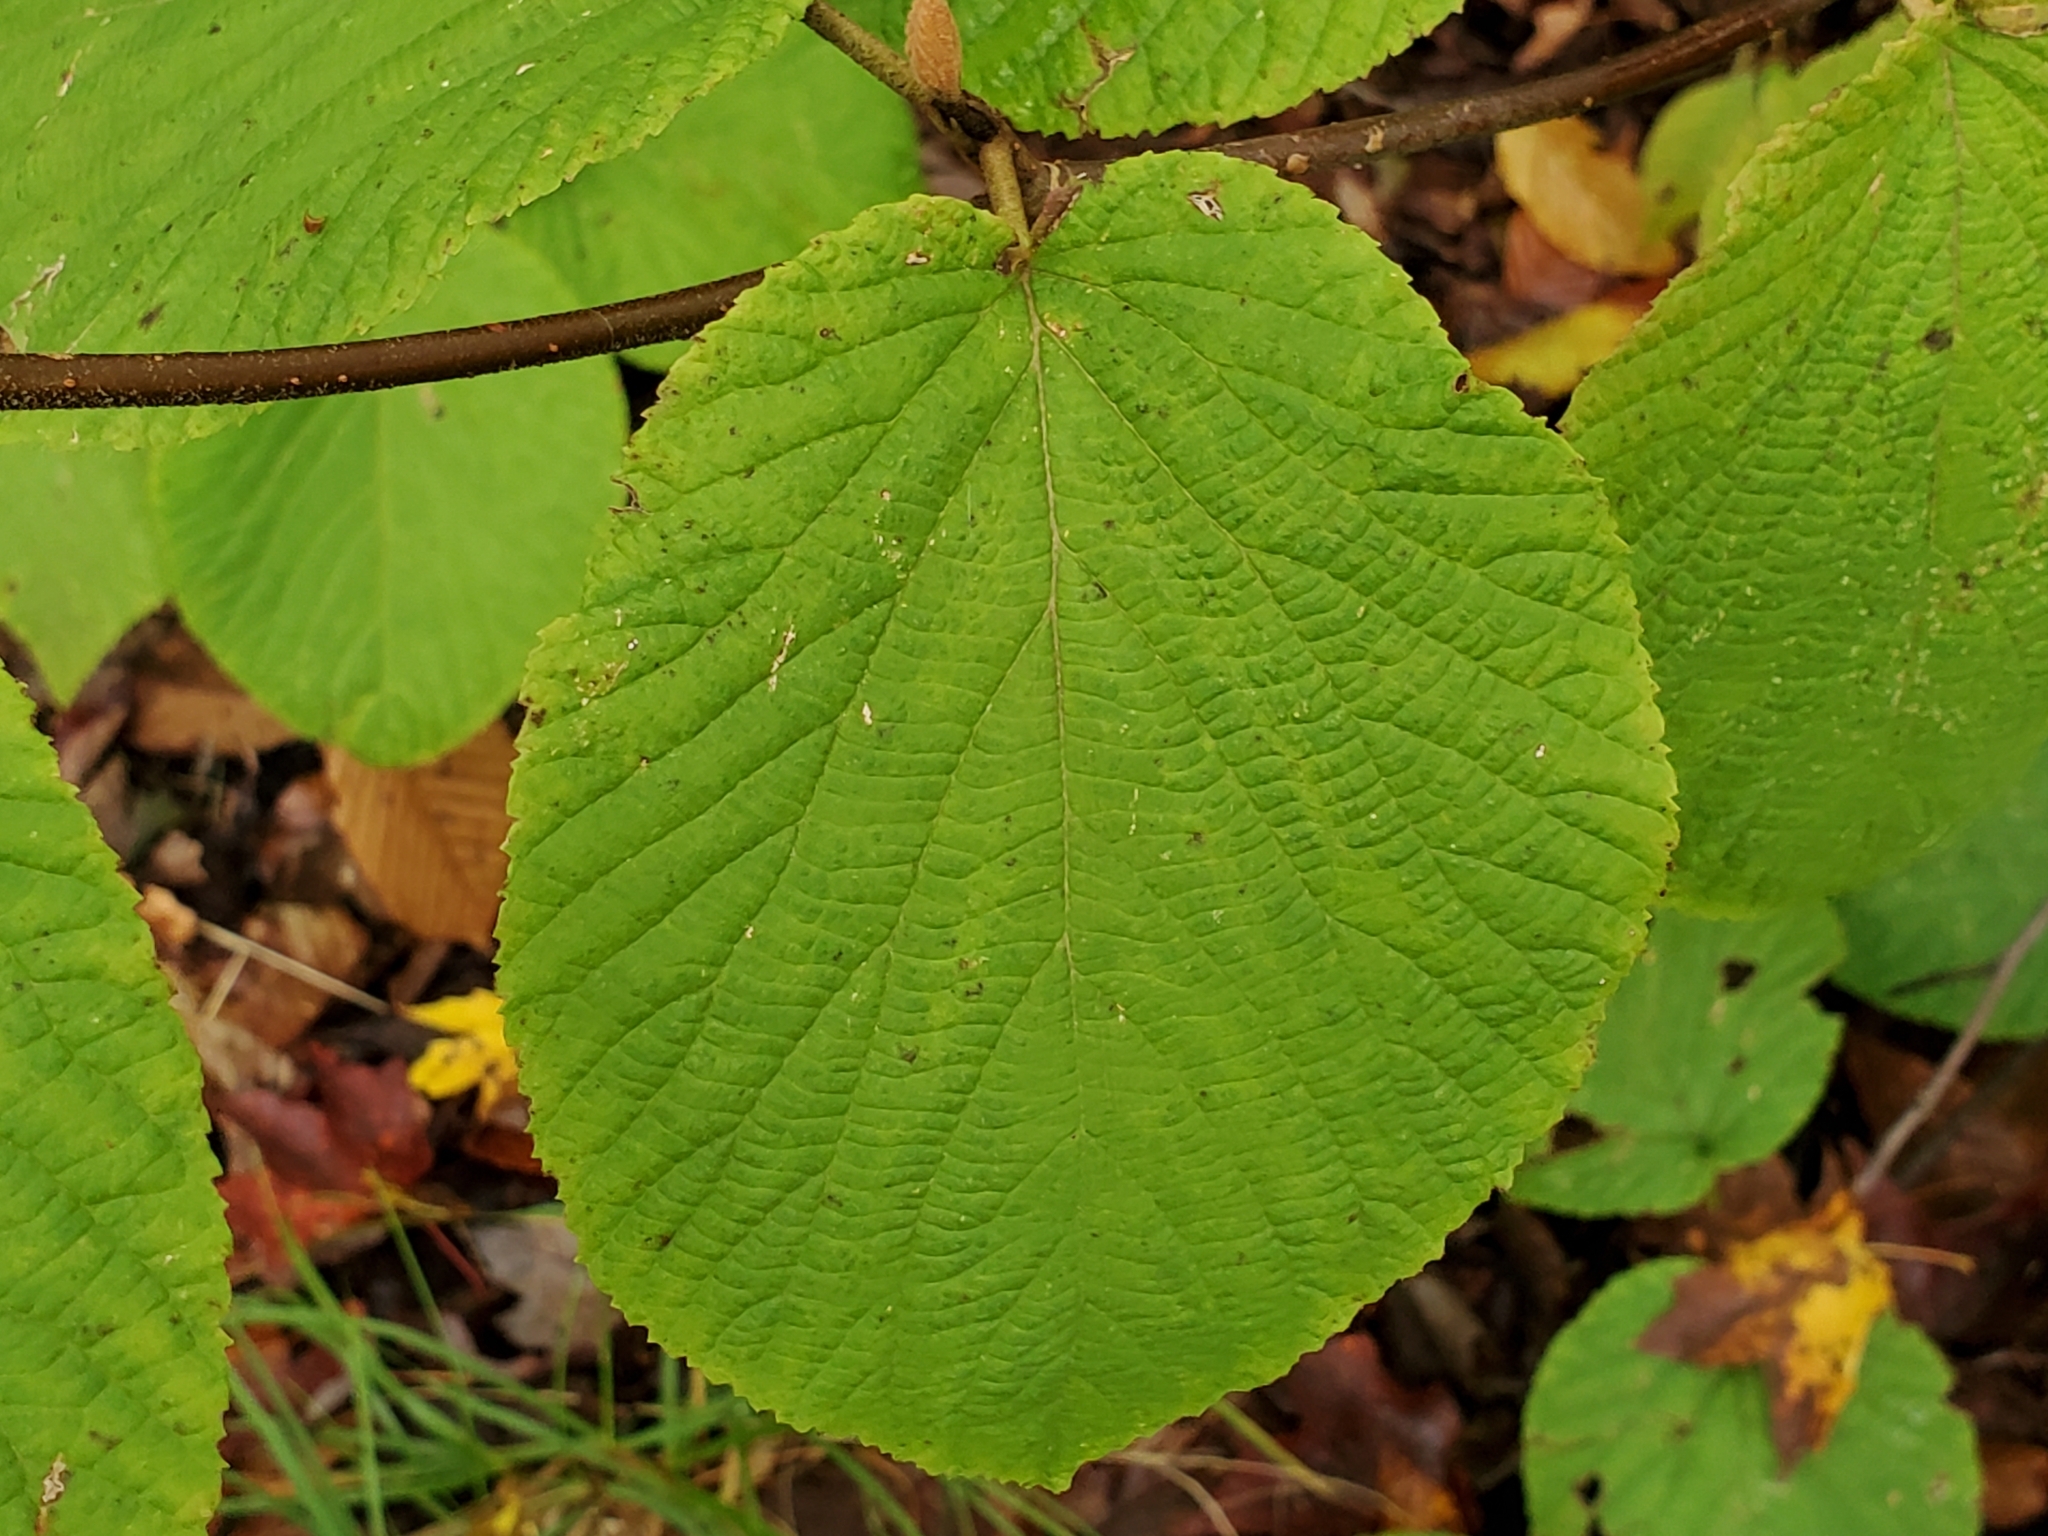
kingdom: Plantae
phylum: Tracheophyta
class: Magnoliopsida
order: Dipsacales
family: Viburnaceae
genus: Viburnum
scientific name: Viburnum lantanoides
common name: Hobblebush
